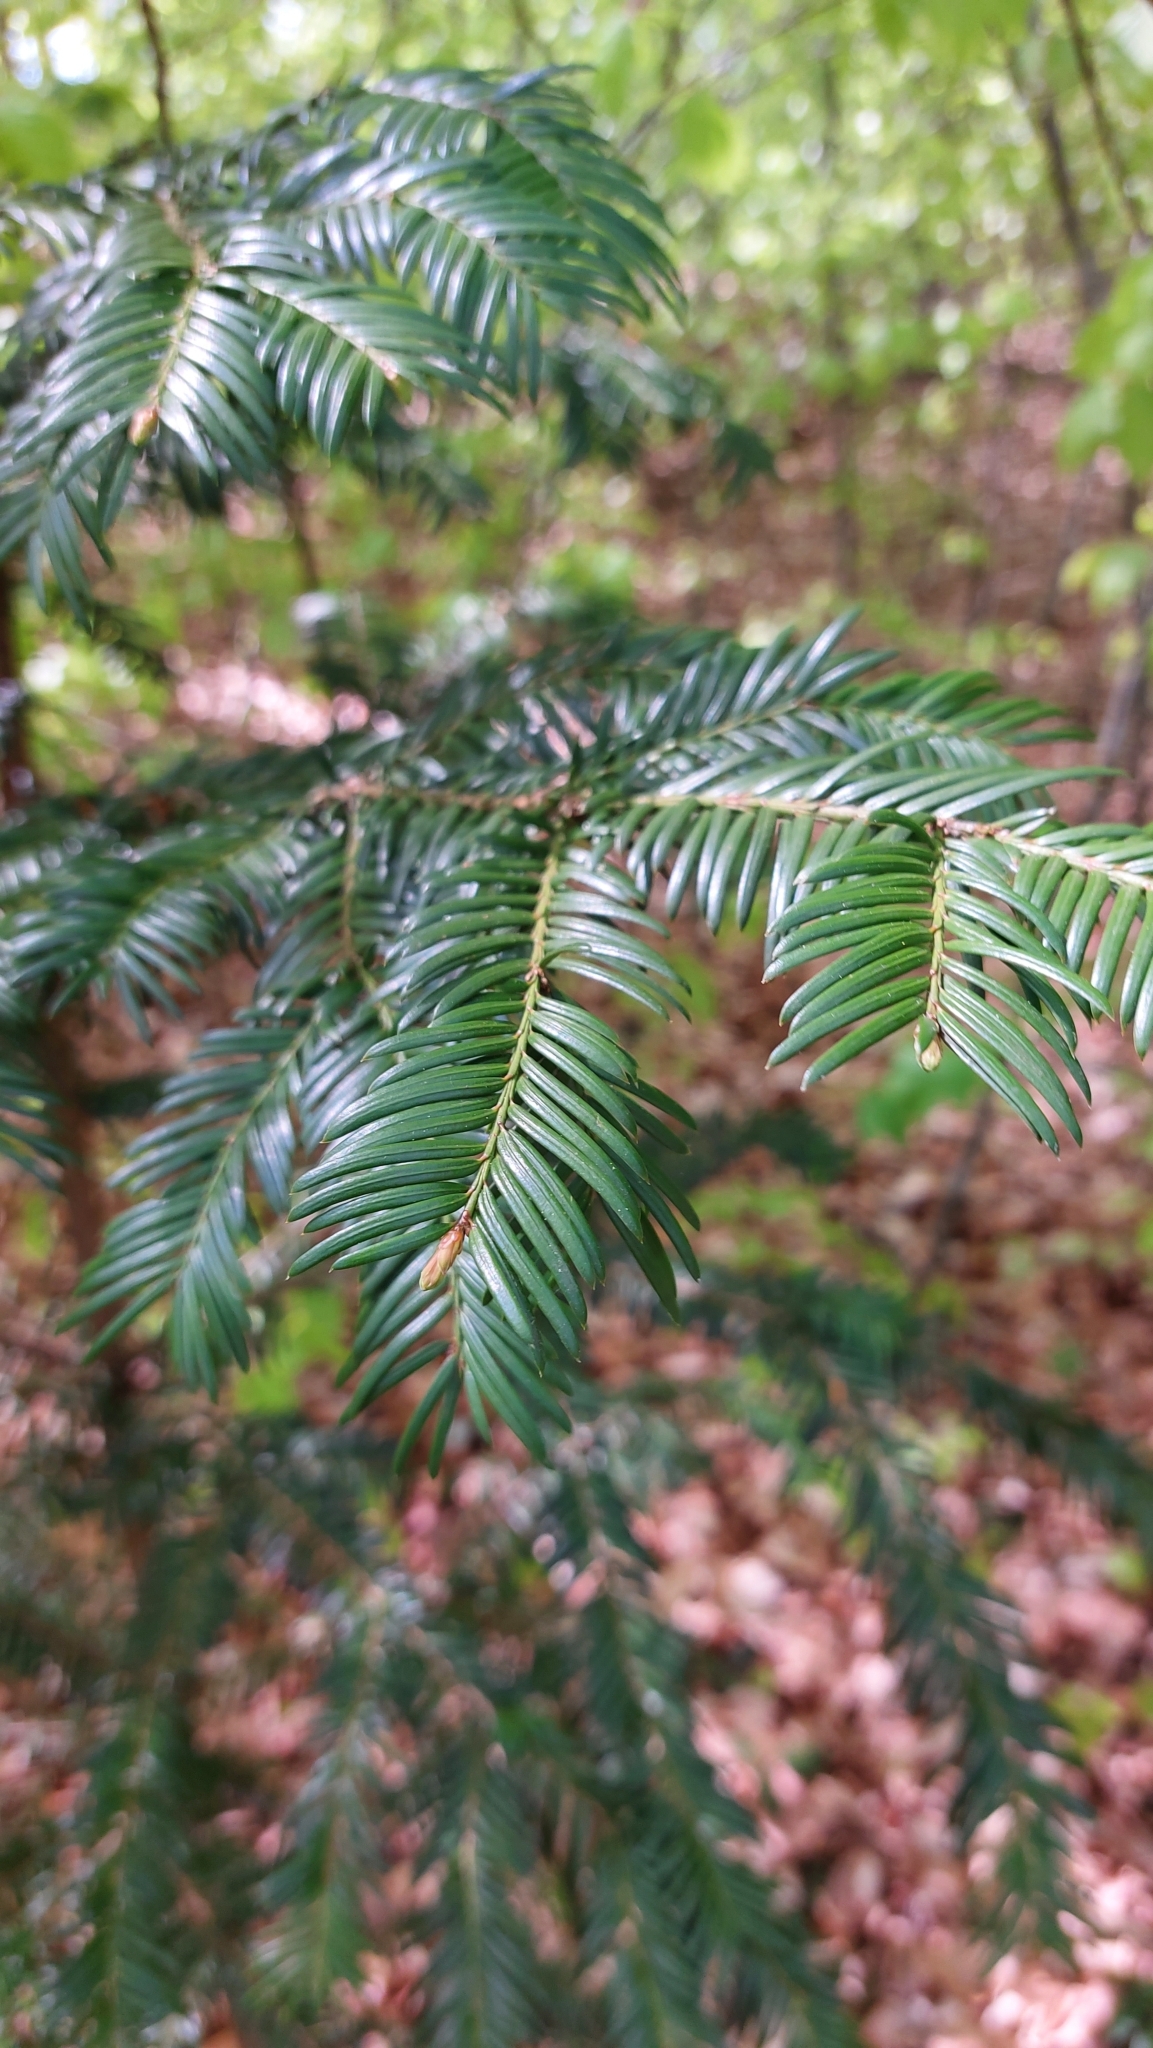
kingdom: Plantae
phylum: Tracheophyta
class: Pinopsida
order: Pinales
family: Taxaceae
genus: Taxus
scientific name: Taxus baccata
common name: Yew
